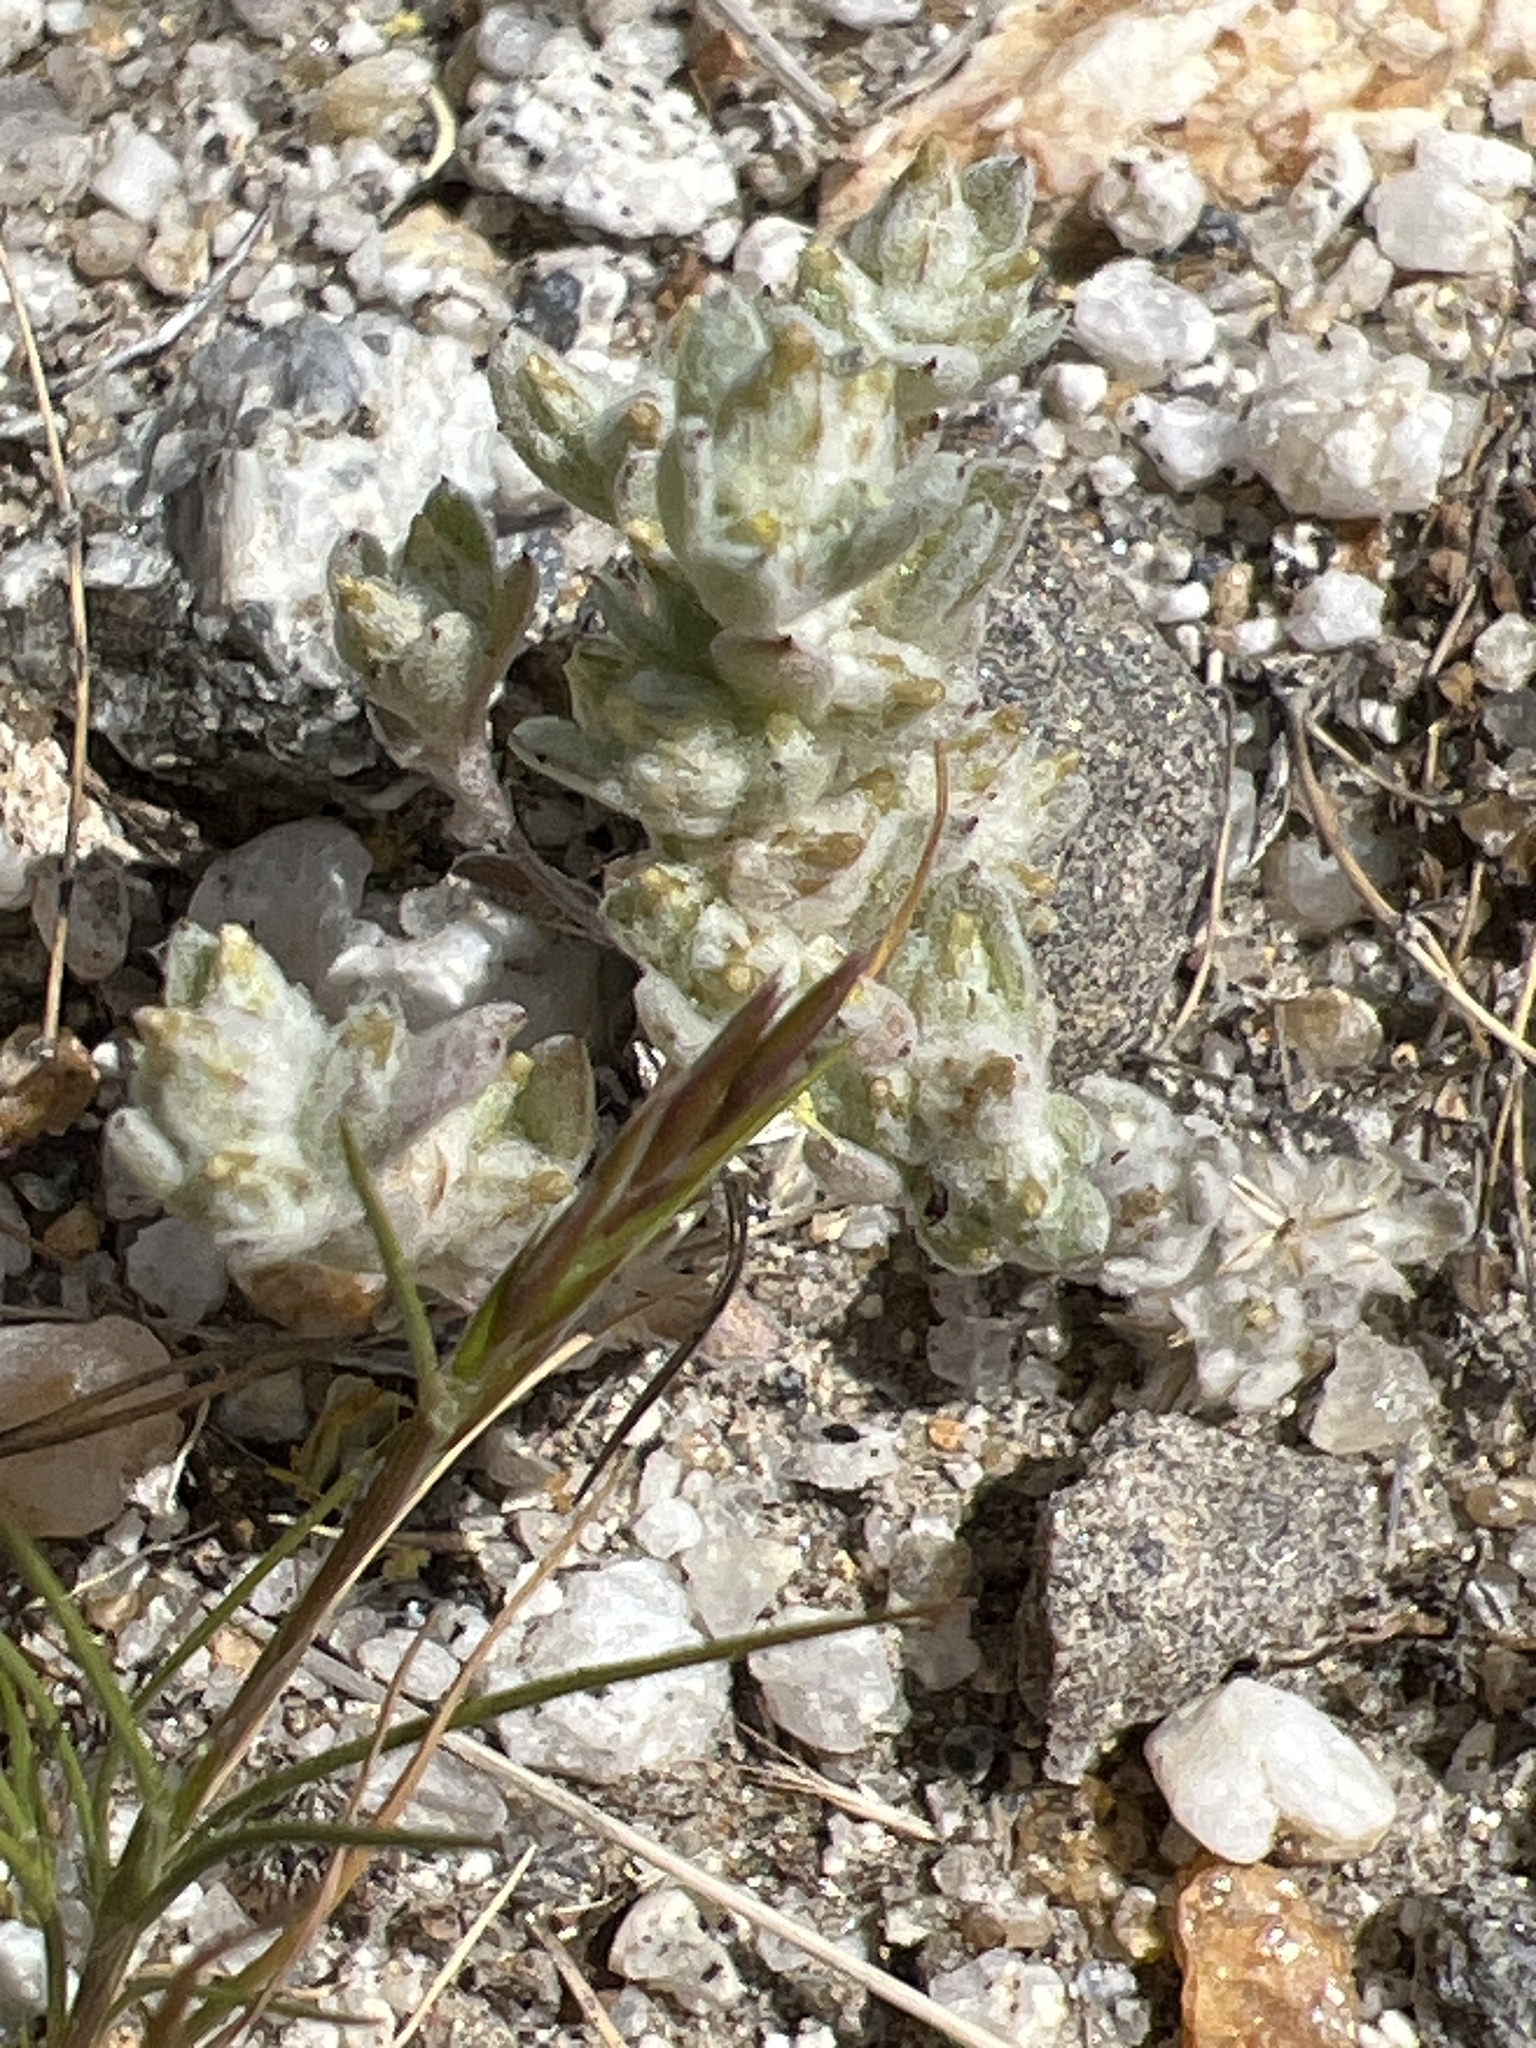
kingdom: Plantae
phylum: Tracheophyta
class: Magnoliopsida
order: Asterales
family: Asteraceae
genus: Logfia
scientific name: Logfia depressa
